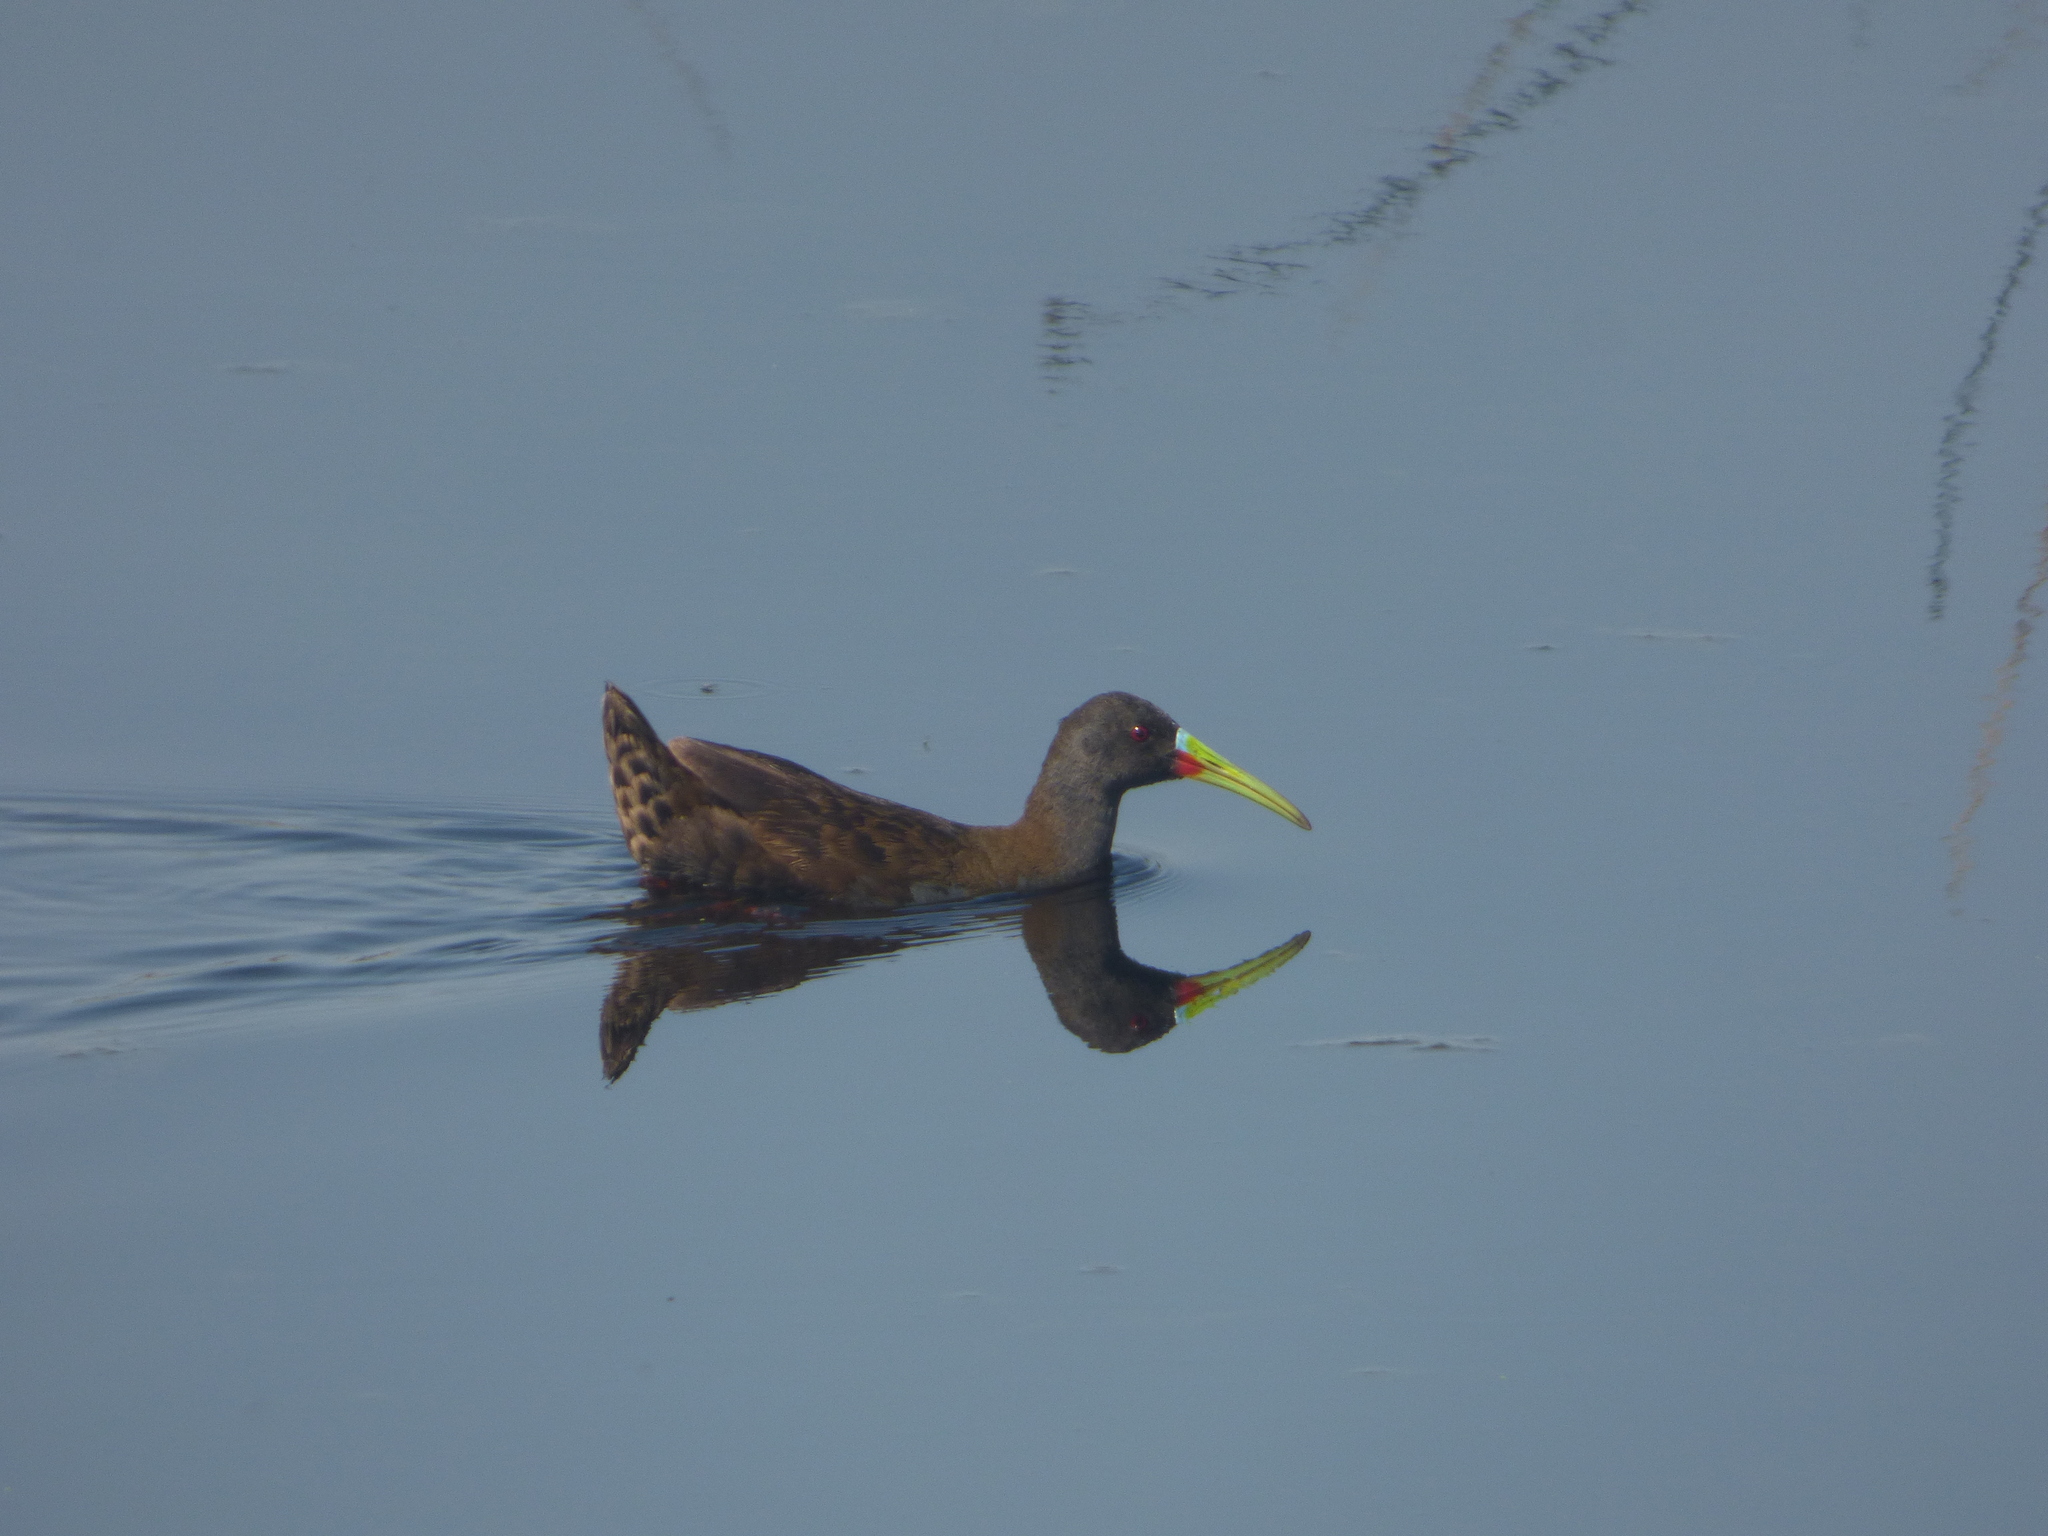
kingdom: Animalia
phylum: Chordata
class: Aves
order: Gruiformes
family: Rallidae
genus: Pardirallus
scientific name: Pardirallus sanguinolentus
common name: Plumbeous rail
